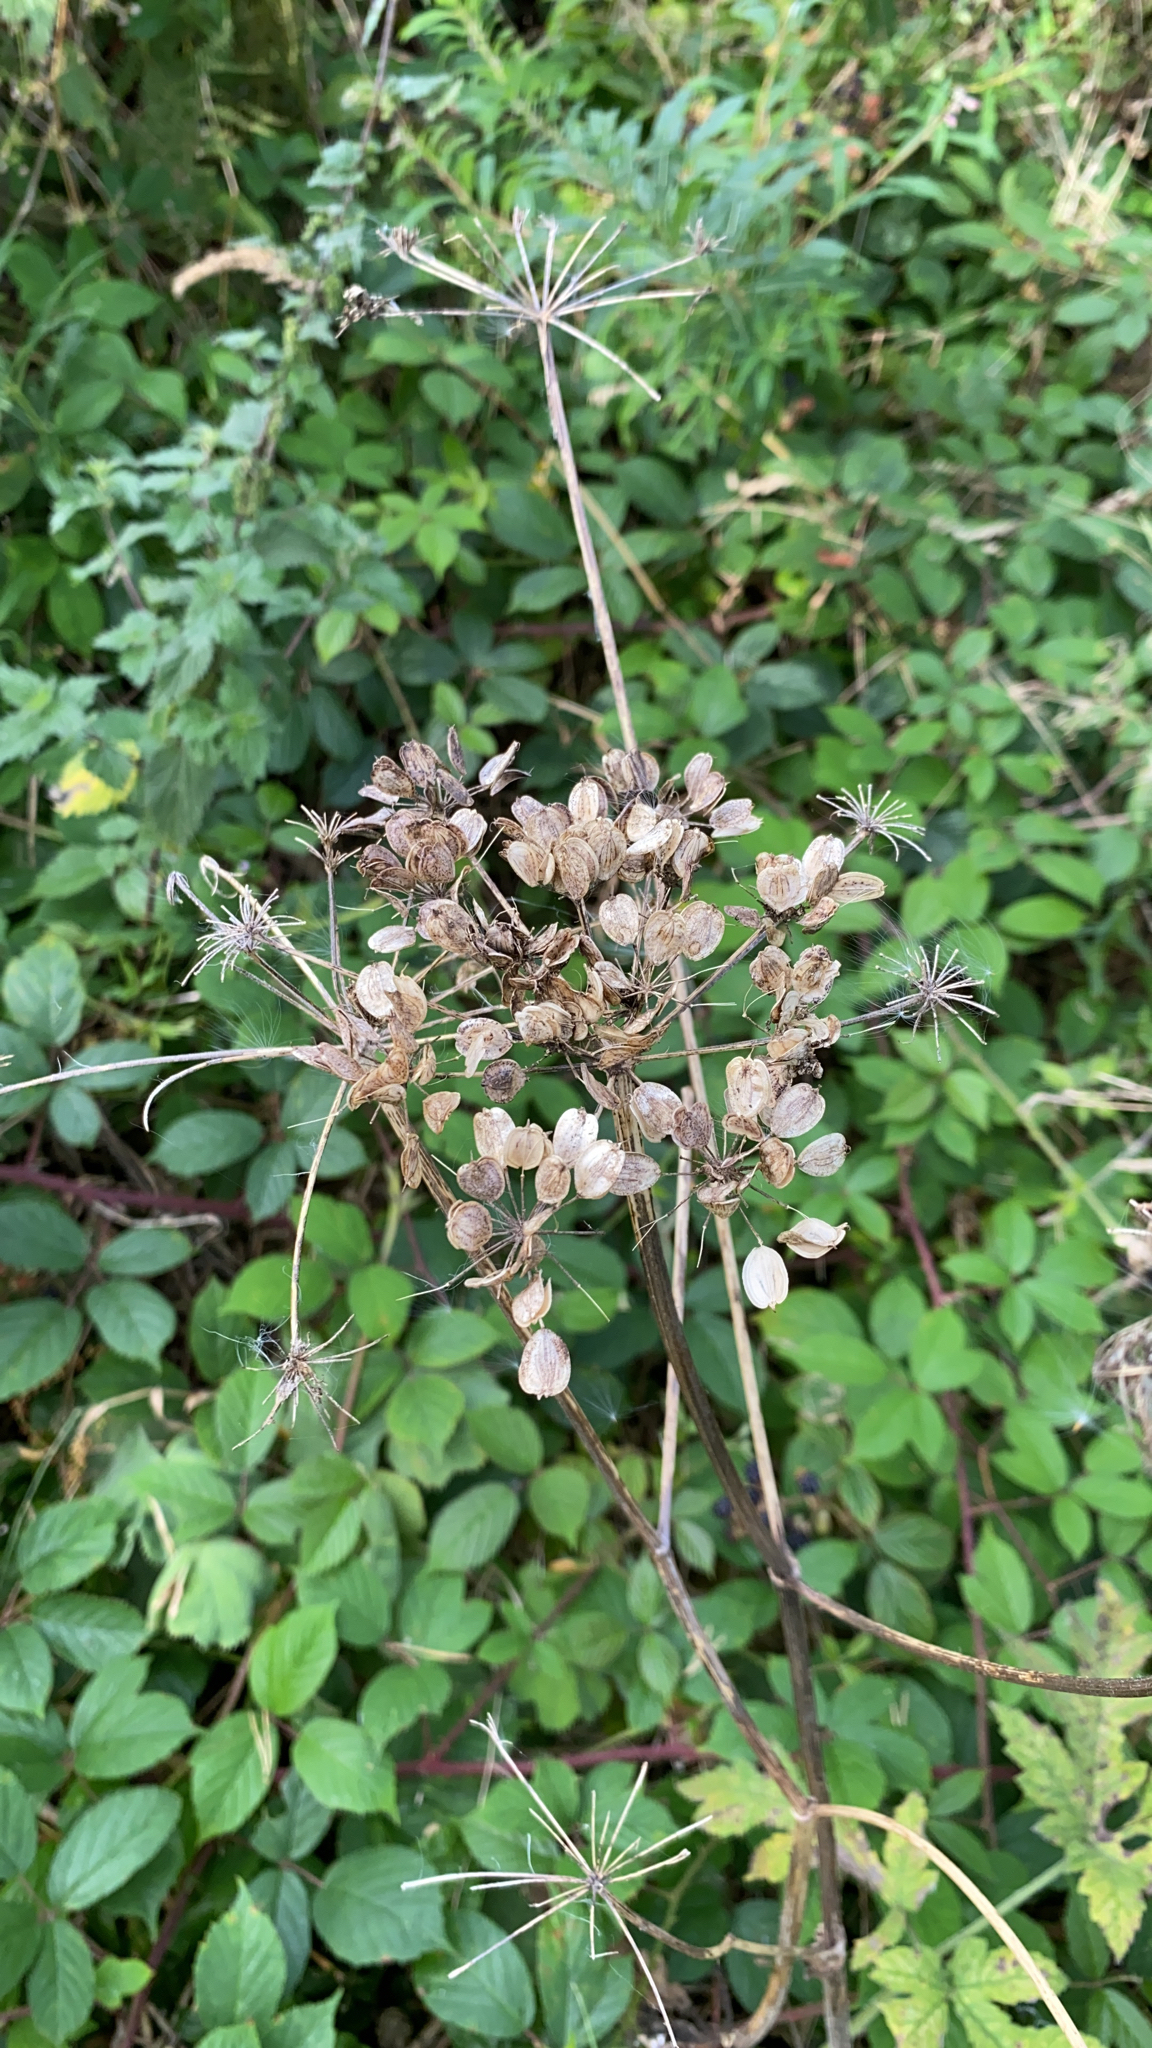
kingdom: Plantae
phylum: Tracheophyta
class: Magnoliopsida
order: Apiales
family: Apiaceae
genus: Heracleum
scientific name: Heracleum sphondylium
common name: Hogweed
